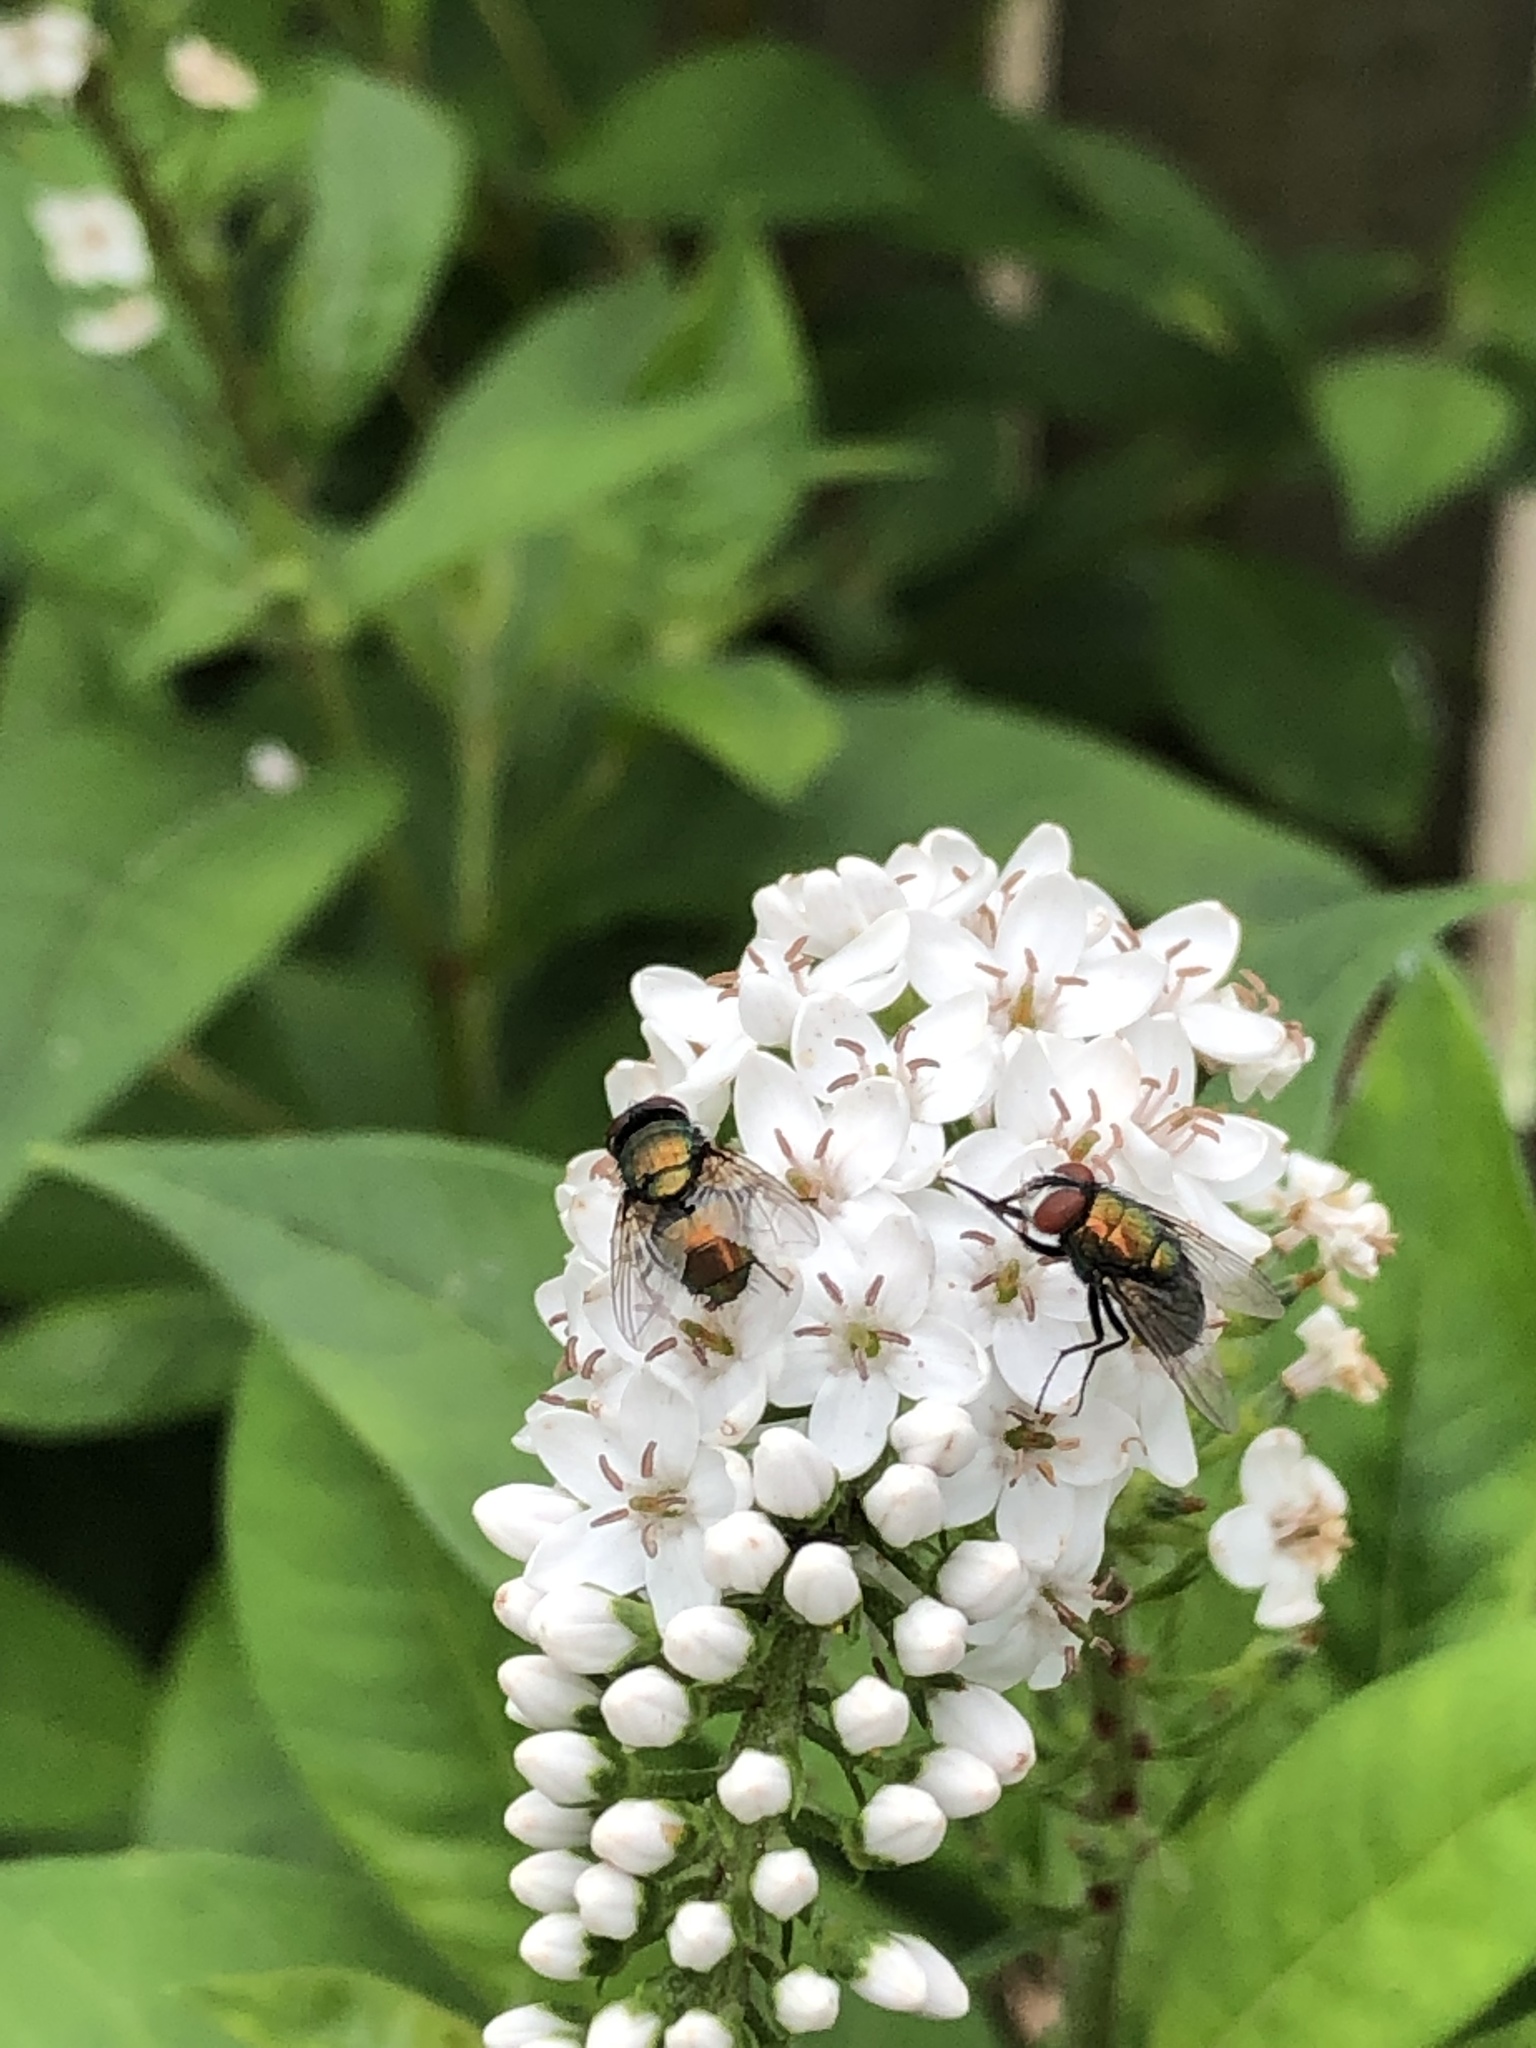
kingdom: Animalia
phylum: Arthropoda
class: Insecta
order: Diptera
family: Calliphoridae
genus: Lucilia
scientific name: Lucilia sericata
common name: Blow fly
